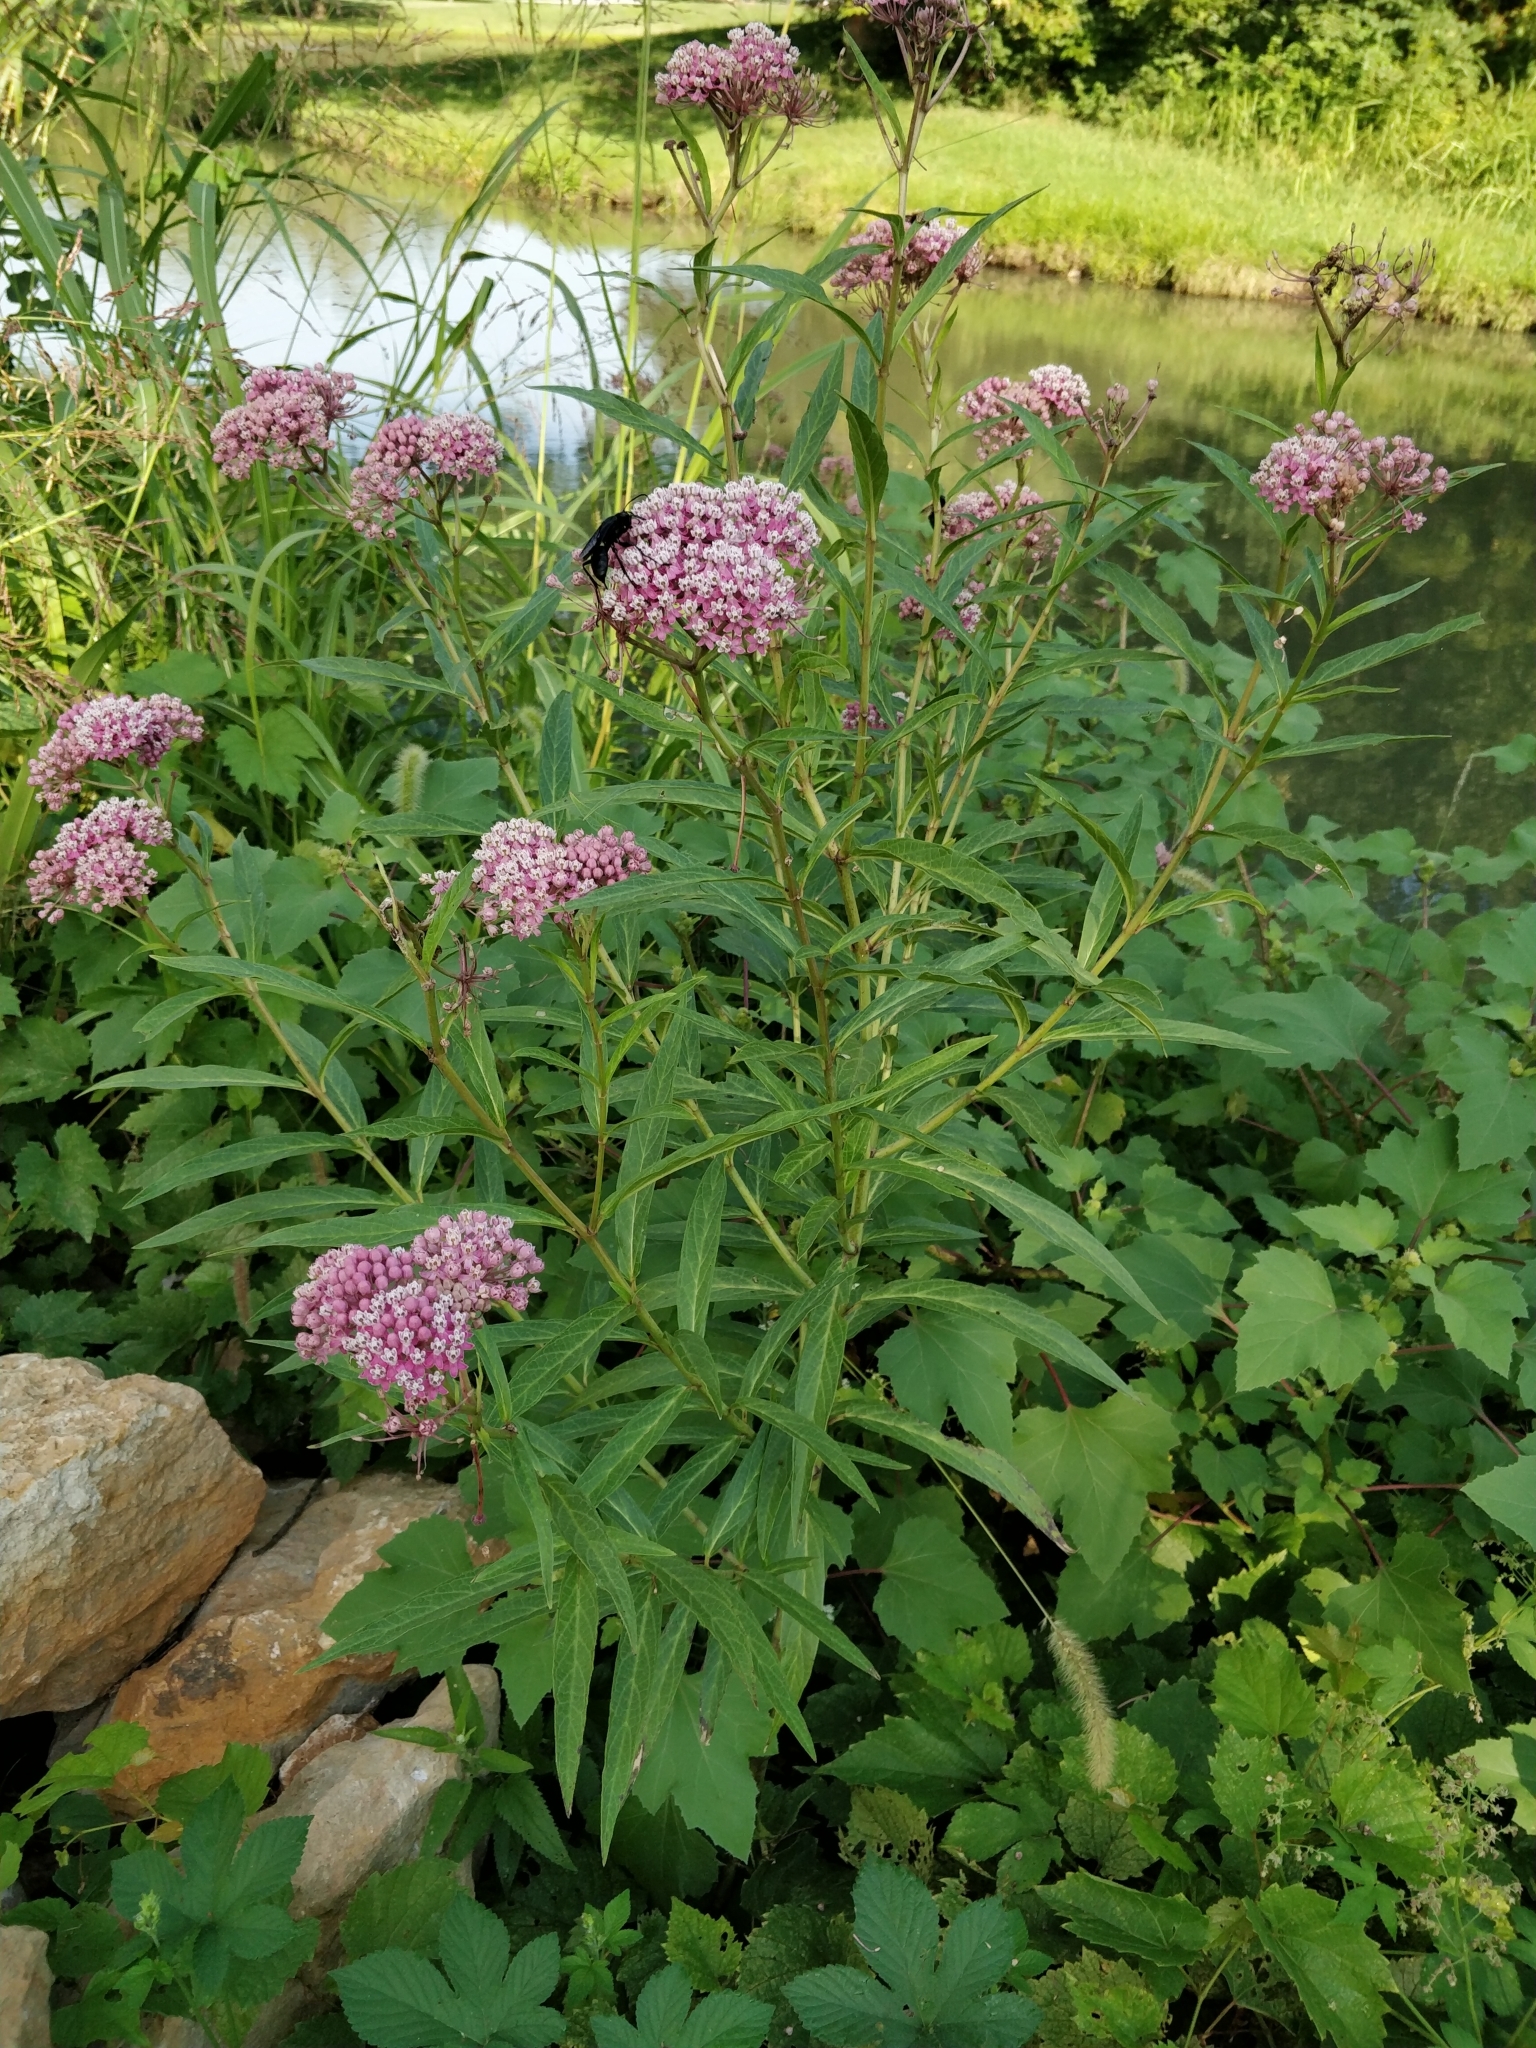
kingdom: Plantae
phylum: Tracheophyta
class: Magnoliopsida
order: Gentianales
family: Apocynaceae
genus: Asclepias
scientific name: Asclepias incarnata
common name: Swamp milkweed
